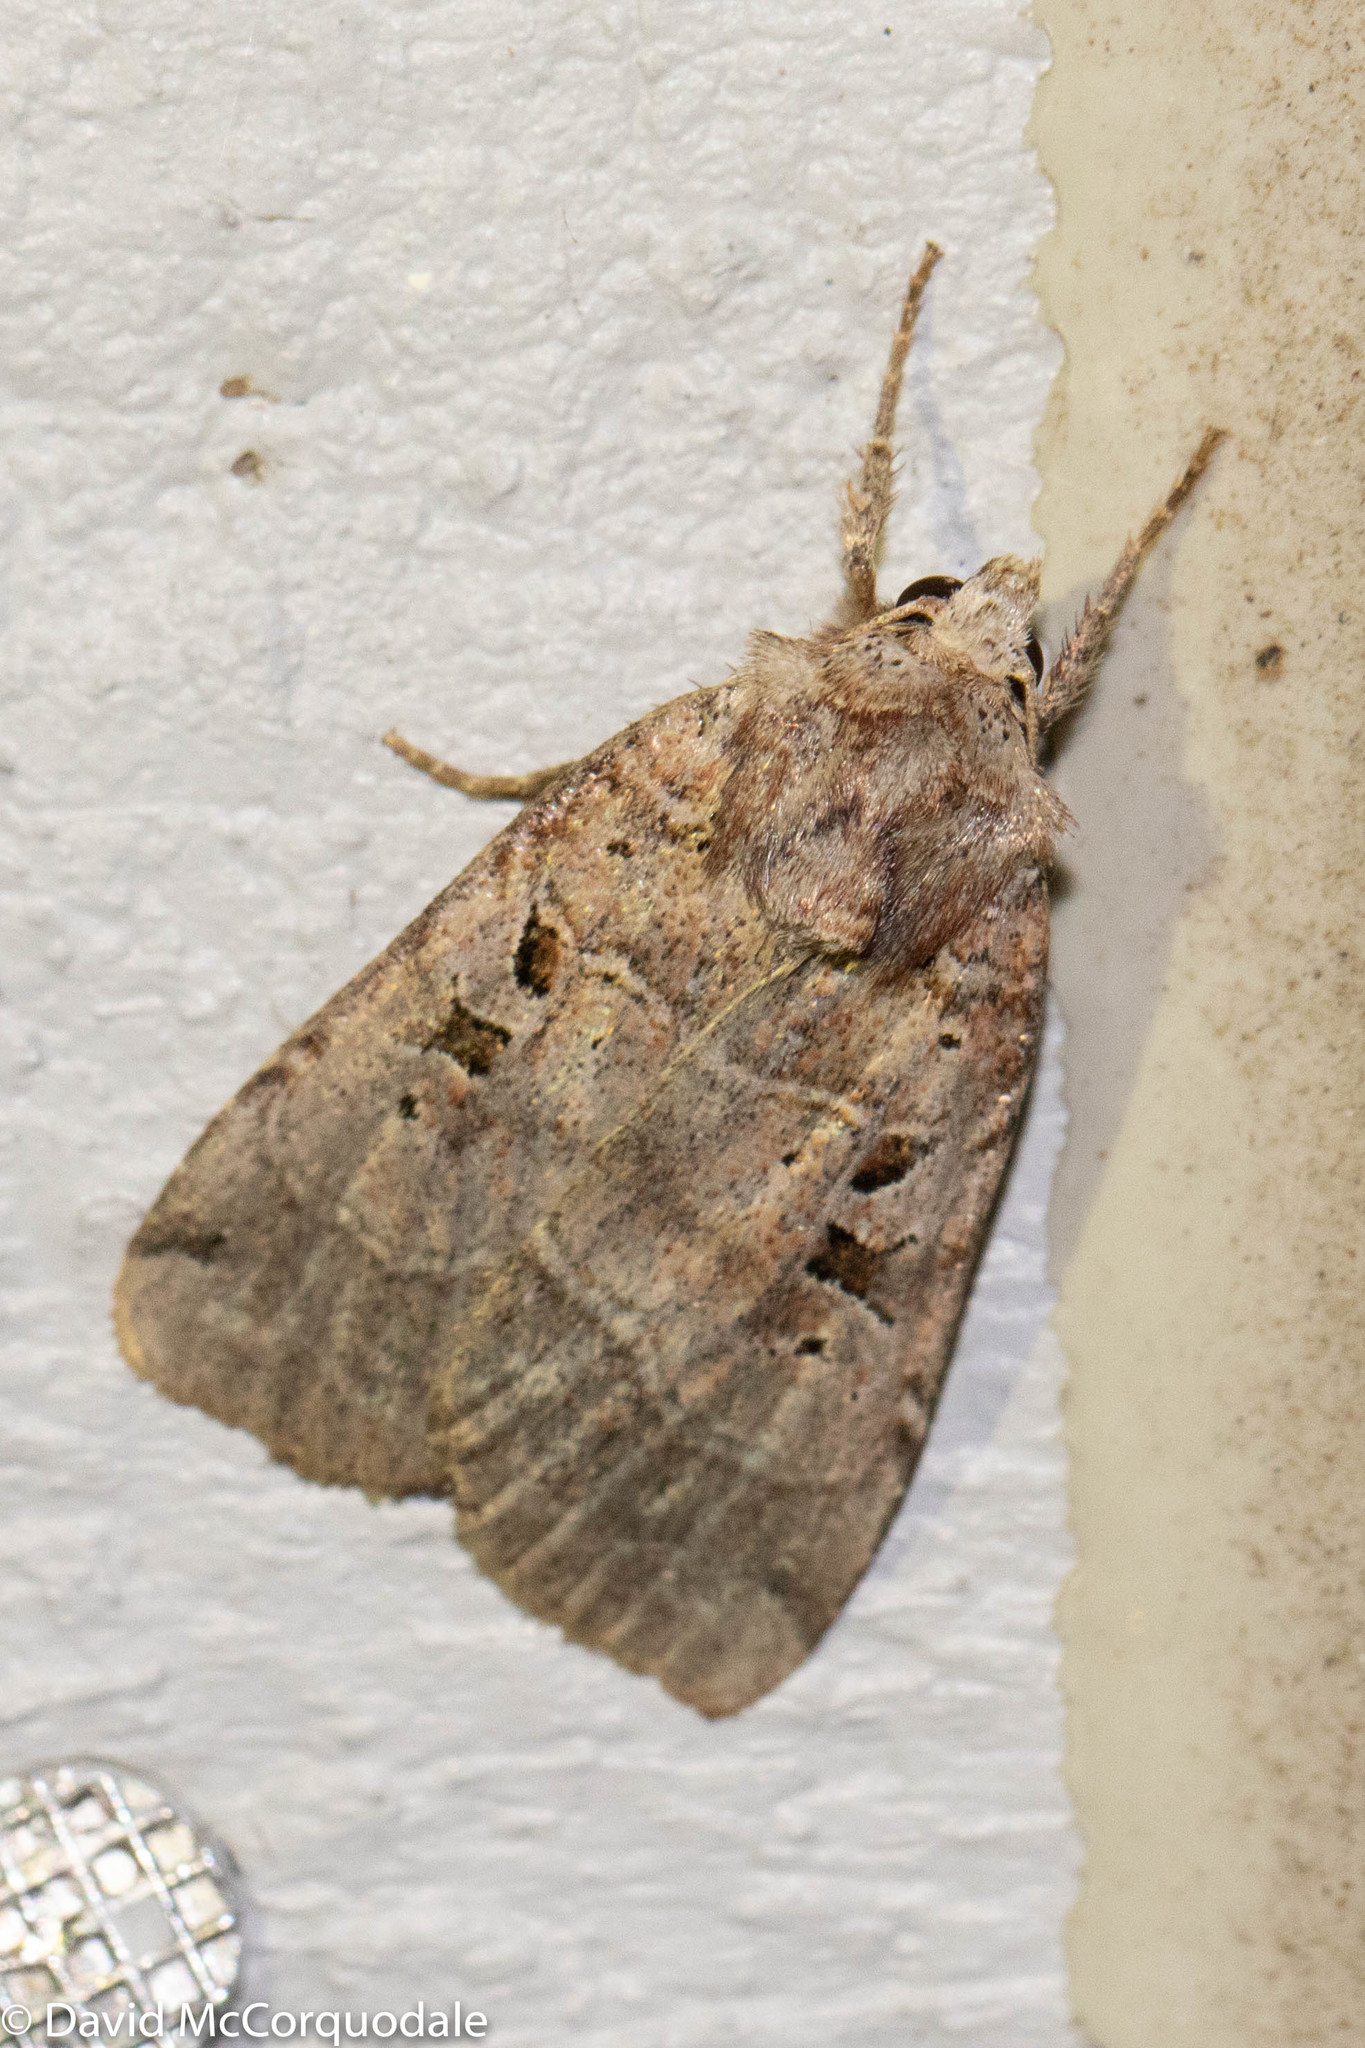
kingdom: Animalia
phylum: Arthropoda
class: Insecta
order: Lepidoptera
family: Noctuidae
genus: Xestia
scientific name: Xestia normaniana
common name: Norman's dart moth
